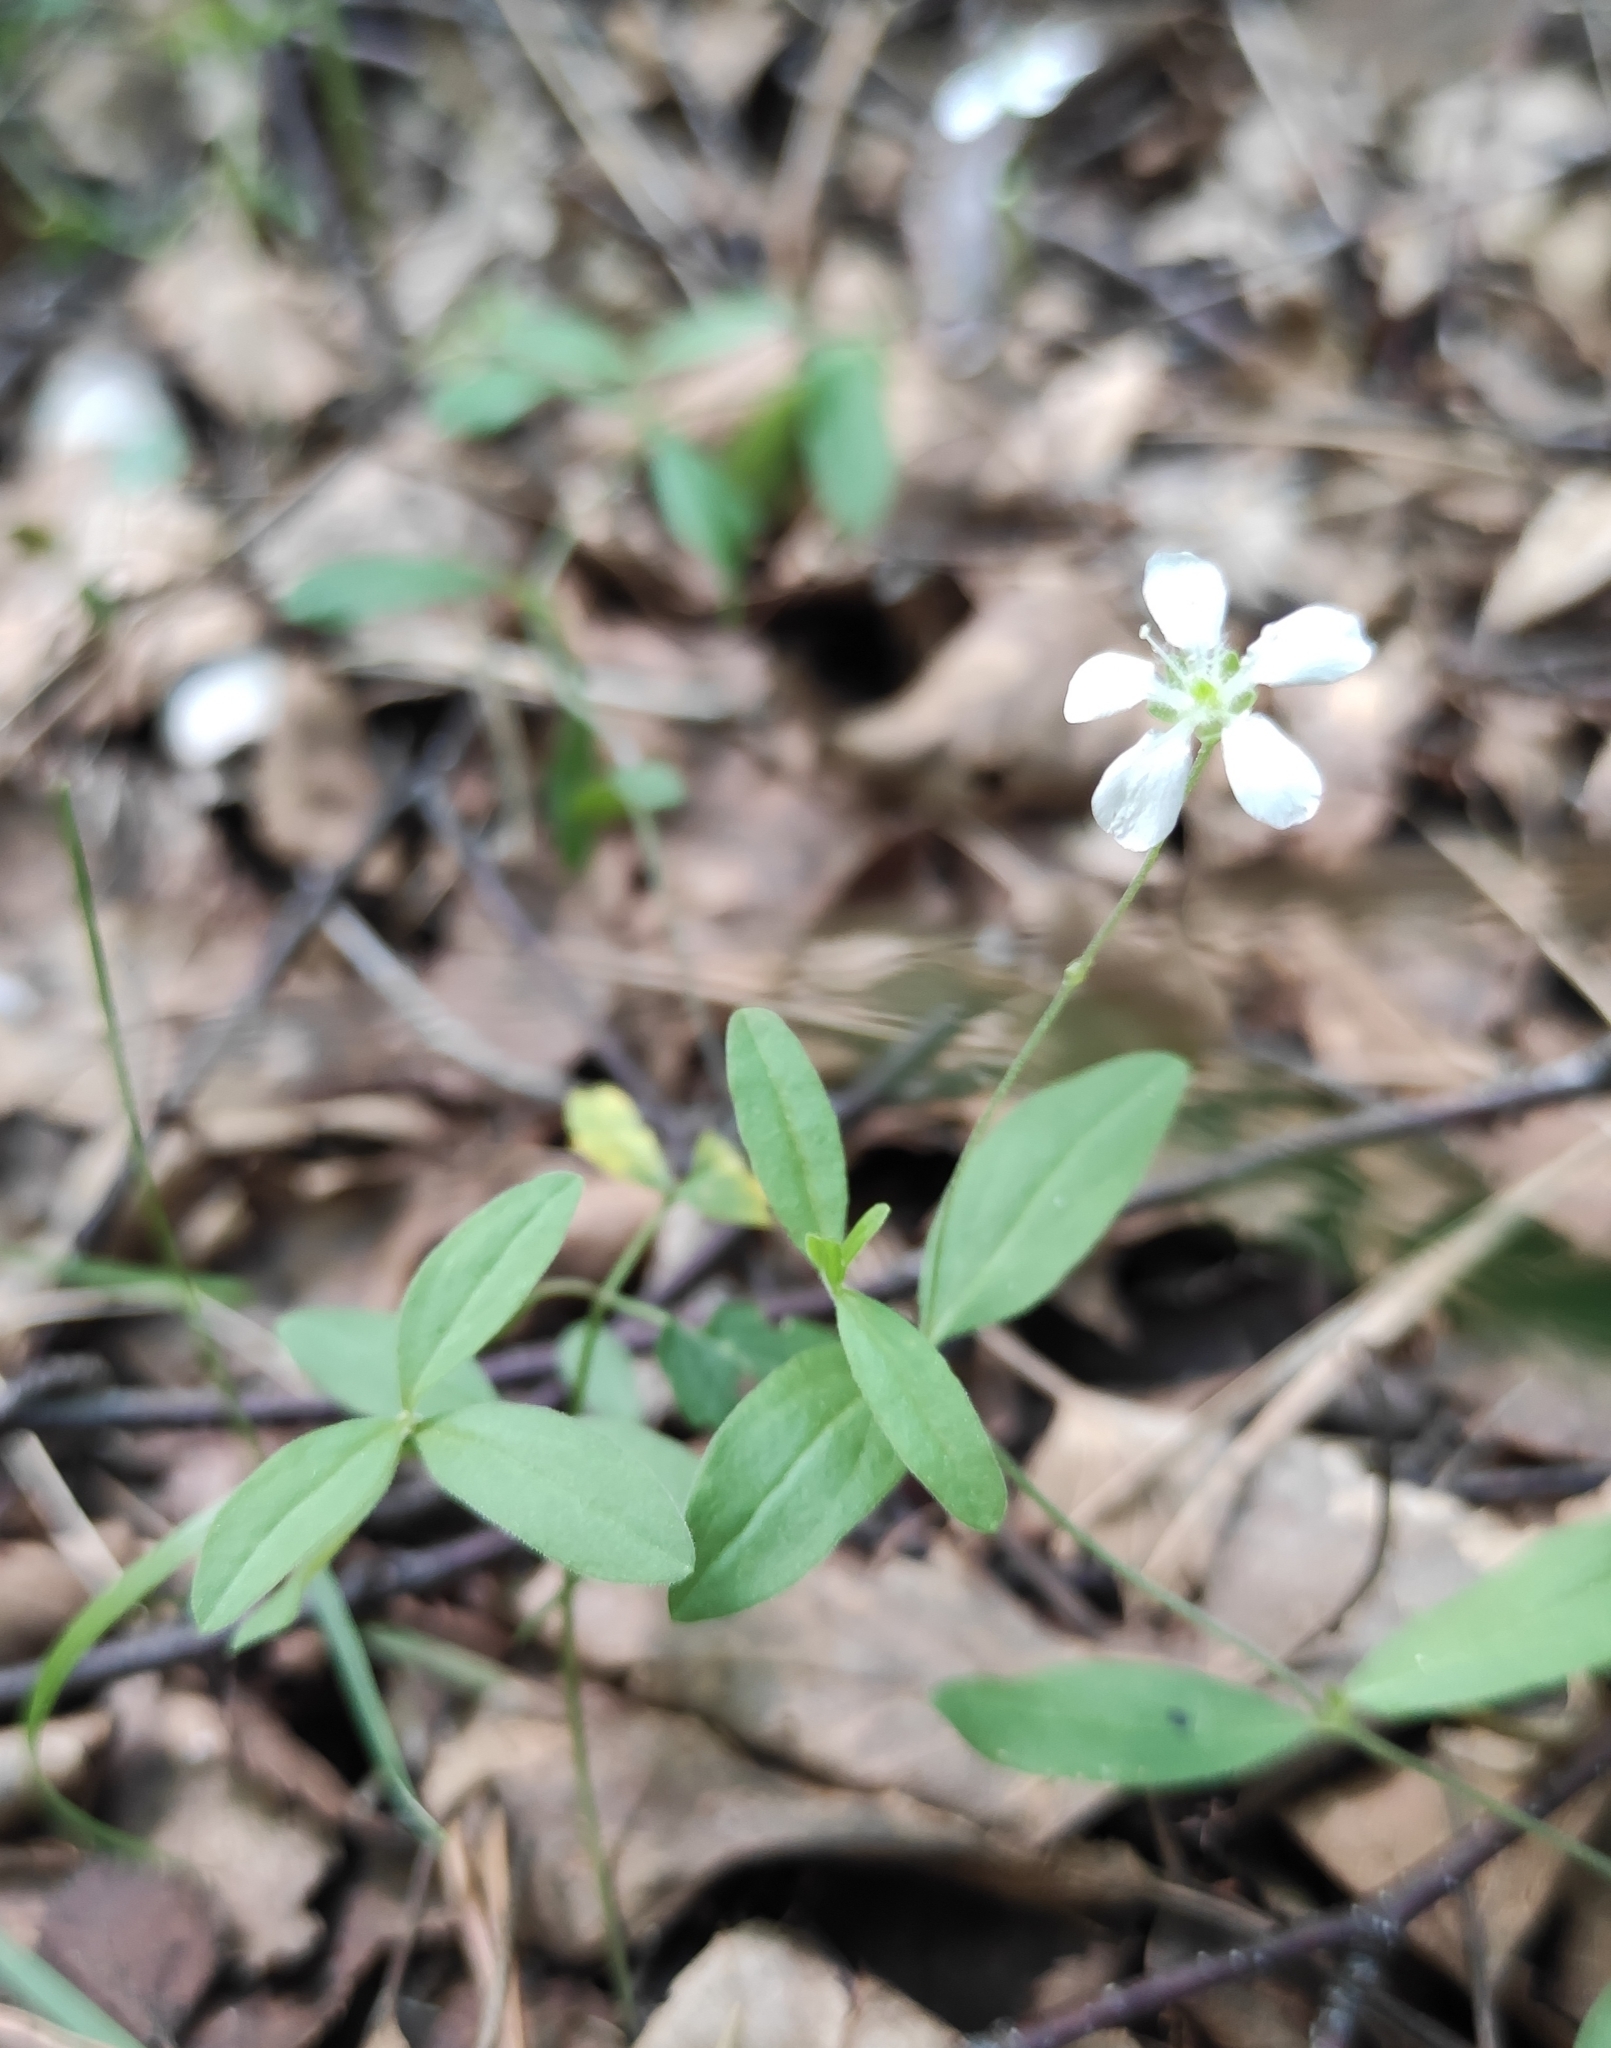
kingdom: Plantae
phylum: Tracheophyta
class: Magnoliopsida
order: Caryophyllales
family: Caryophyllaceae
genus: Moehringia
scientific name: Moehringia lateriflora
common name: Blunt-leaved sandwort
